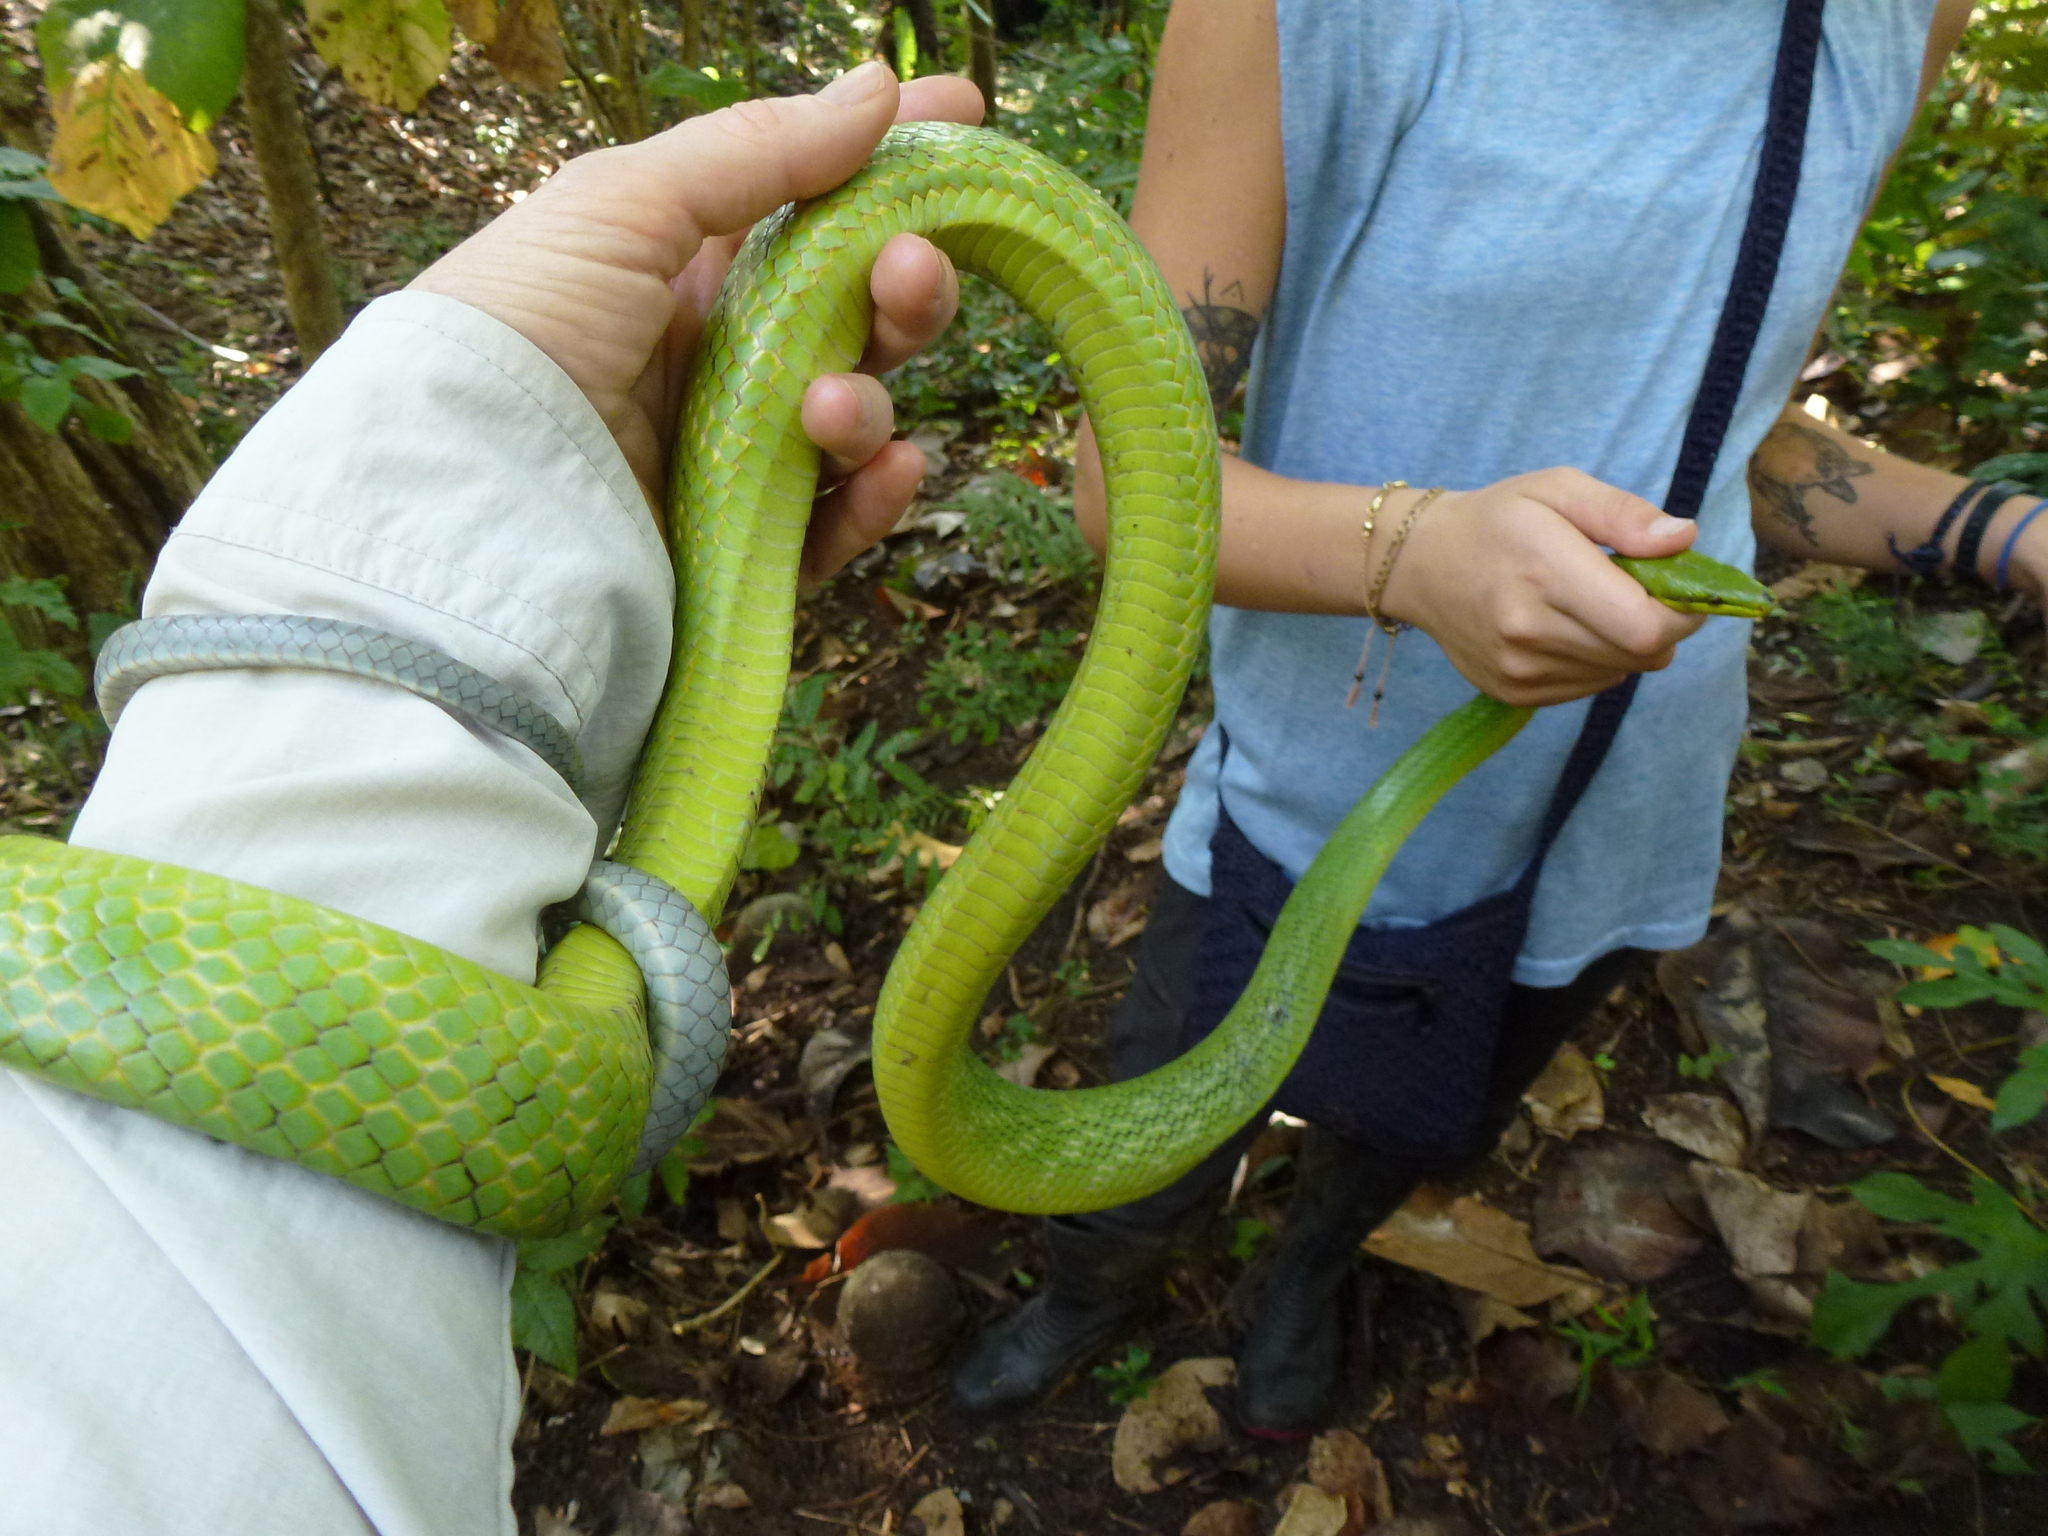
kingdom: Animalia
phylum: Chordata
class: Squamata
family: Colubridae
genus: Gonyosoma
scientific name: Gonyosoma oxycephalum
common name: Red-tailed racer
